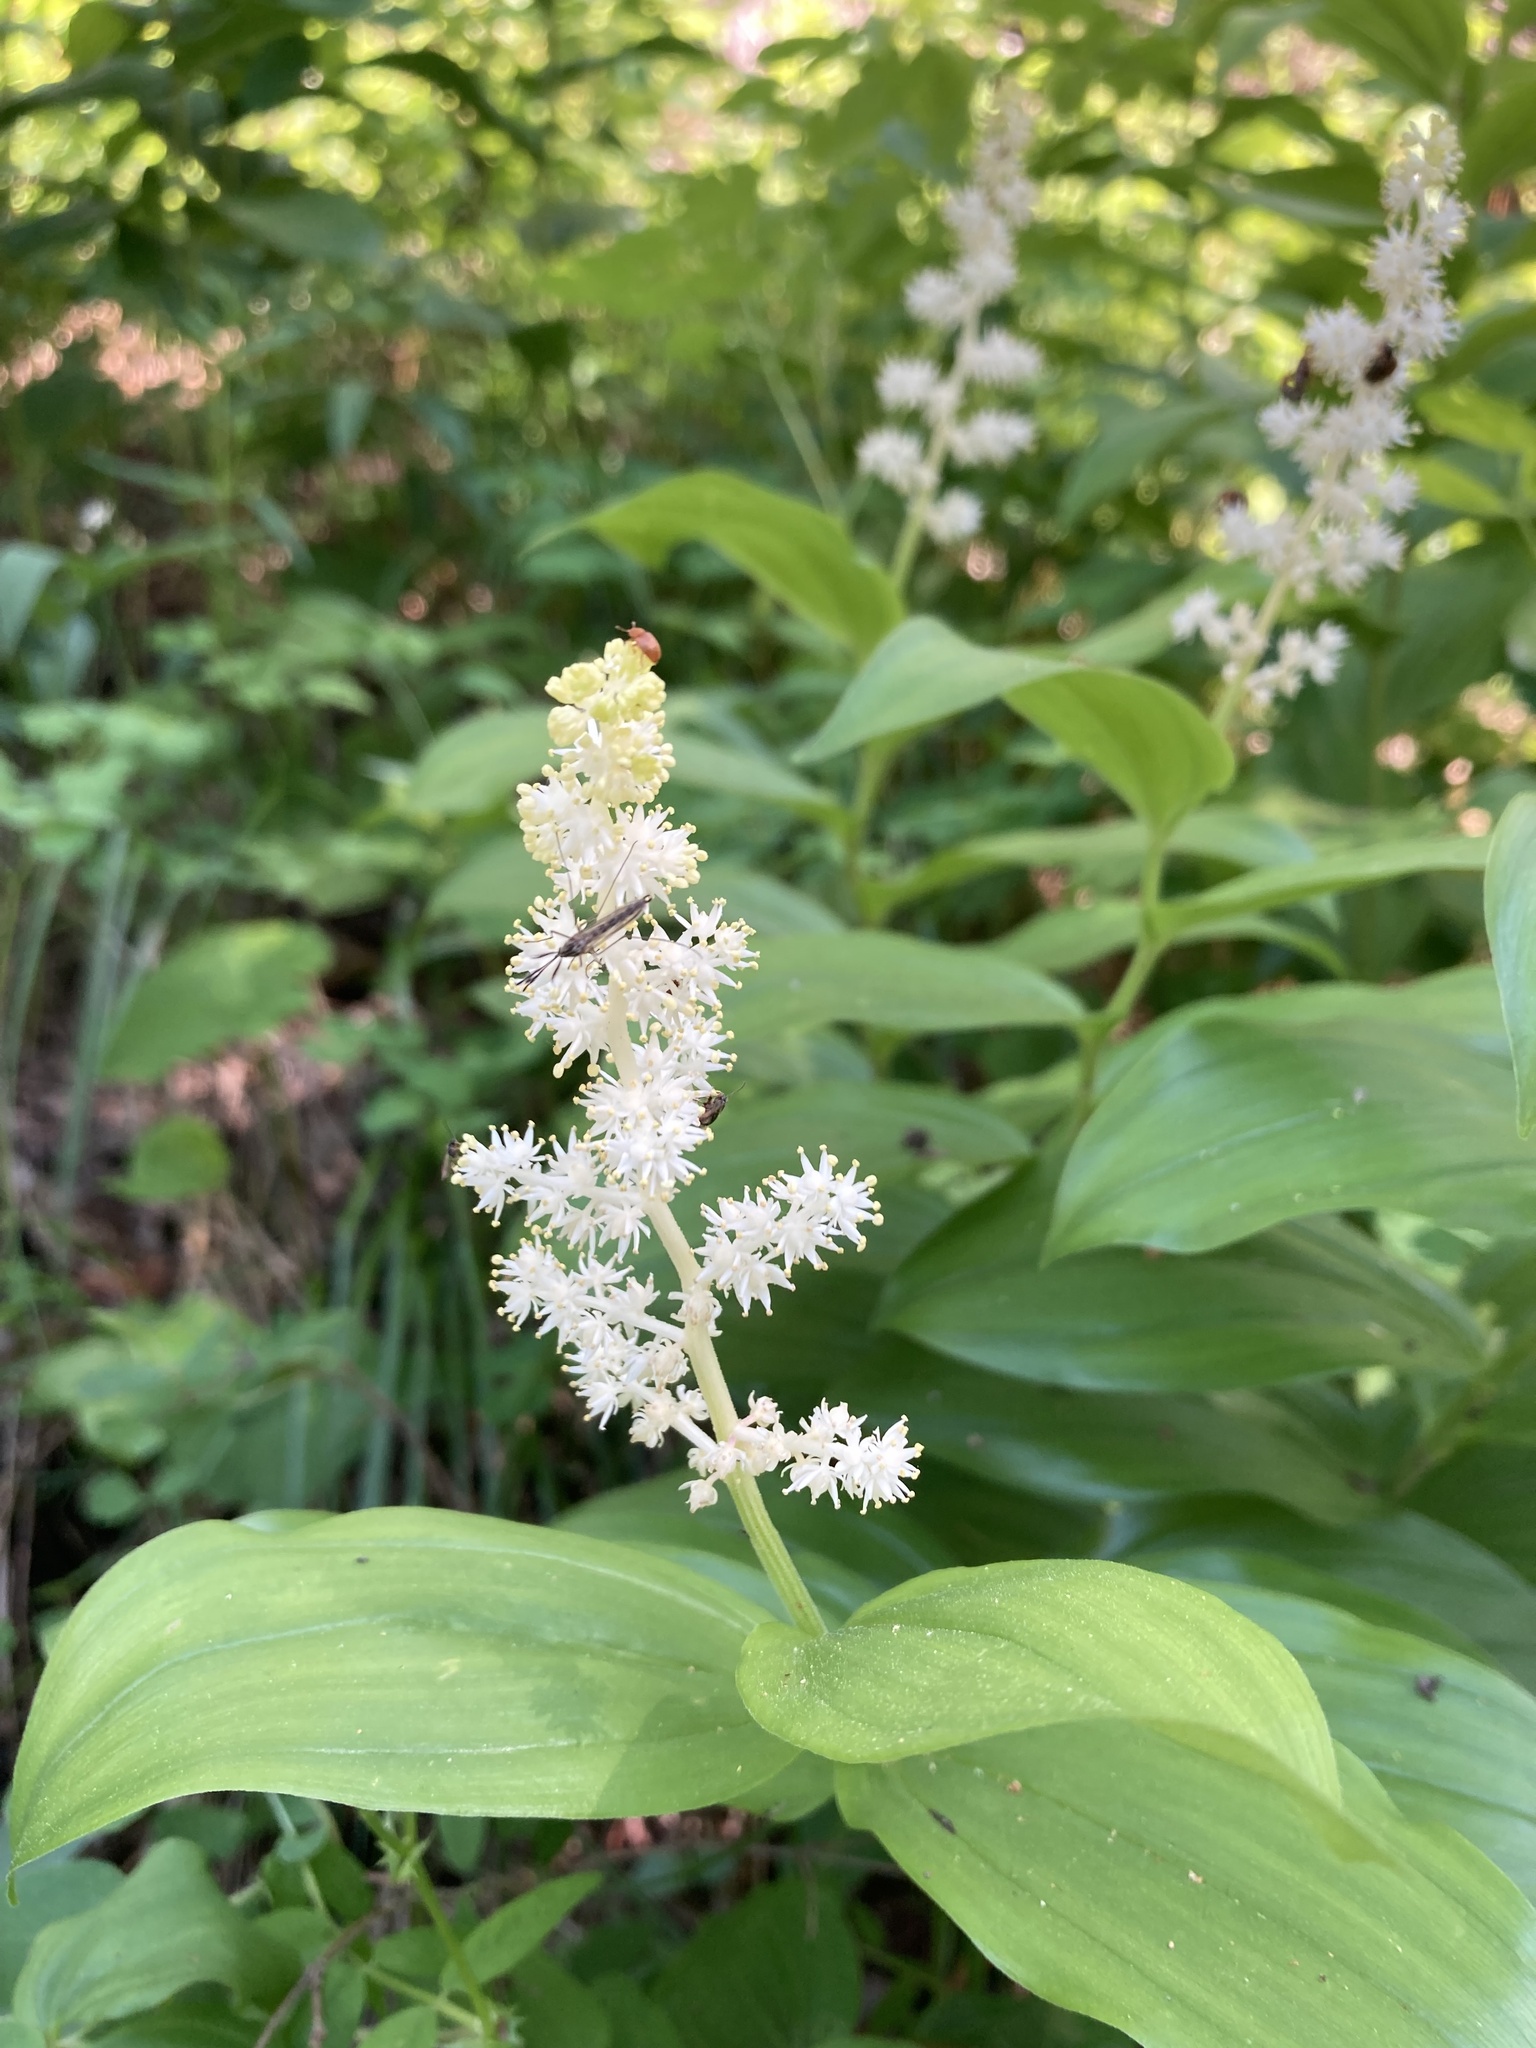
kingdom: Plantae
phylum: Tracheophyta
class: Liliopsida
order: Asparagales
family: Asparagaceae
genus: Maianthemum
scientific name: Maianthemum racemosum
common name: False spikenard
